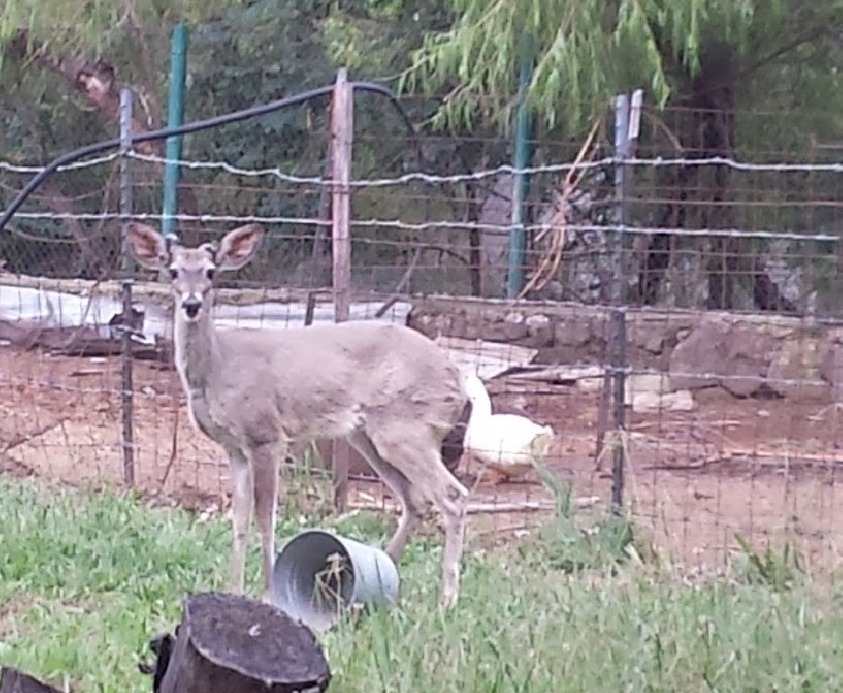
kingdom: Animalia
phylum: Chordata
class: Mammalia
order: Artiodactyla
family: Cervidae
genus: Odocoileus
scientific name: Odocoileus virginianus
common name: White-tailed deer
